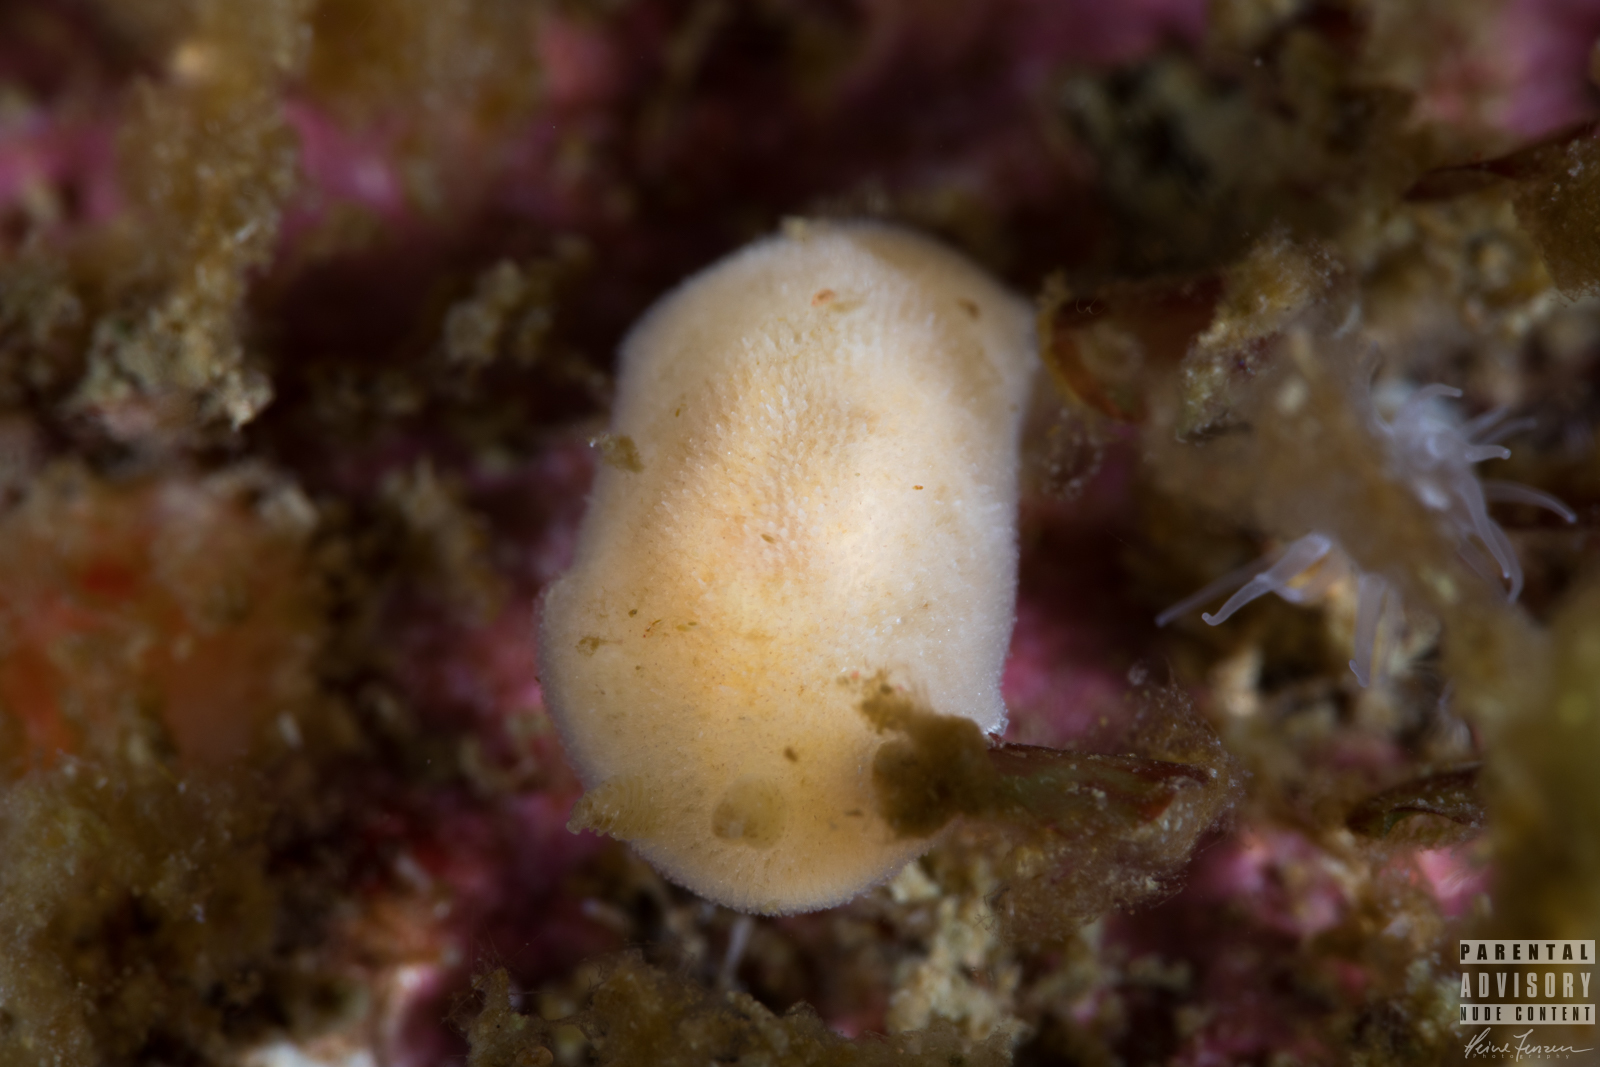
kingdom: Animalia
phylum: Mollusca
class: Gastropoda
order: Nudibranchia
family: Discodorididae
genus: Jorunna
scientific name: Jorunna tomentosa
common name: Grey sea slug
